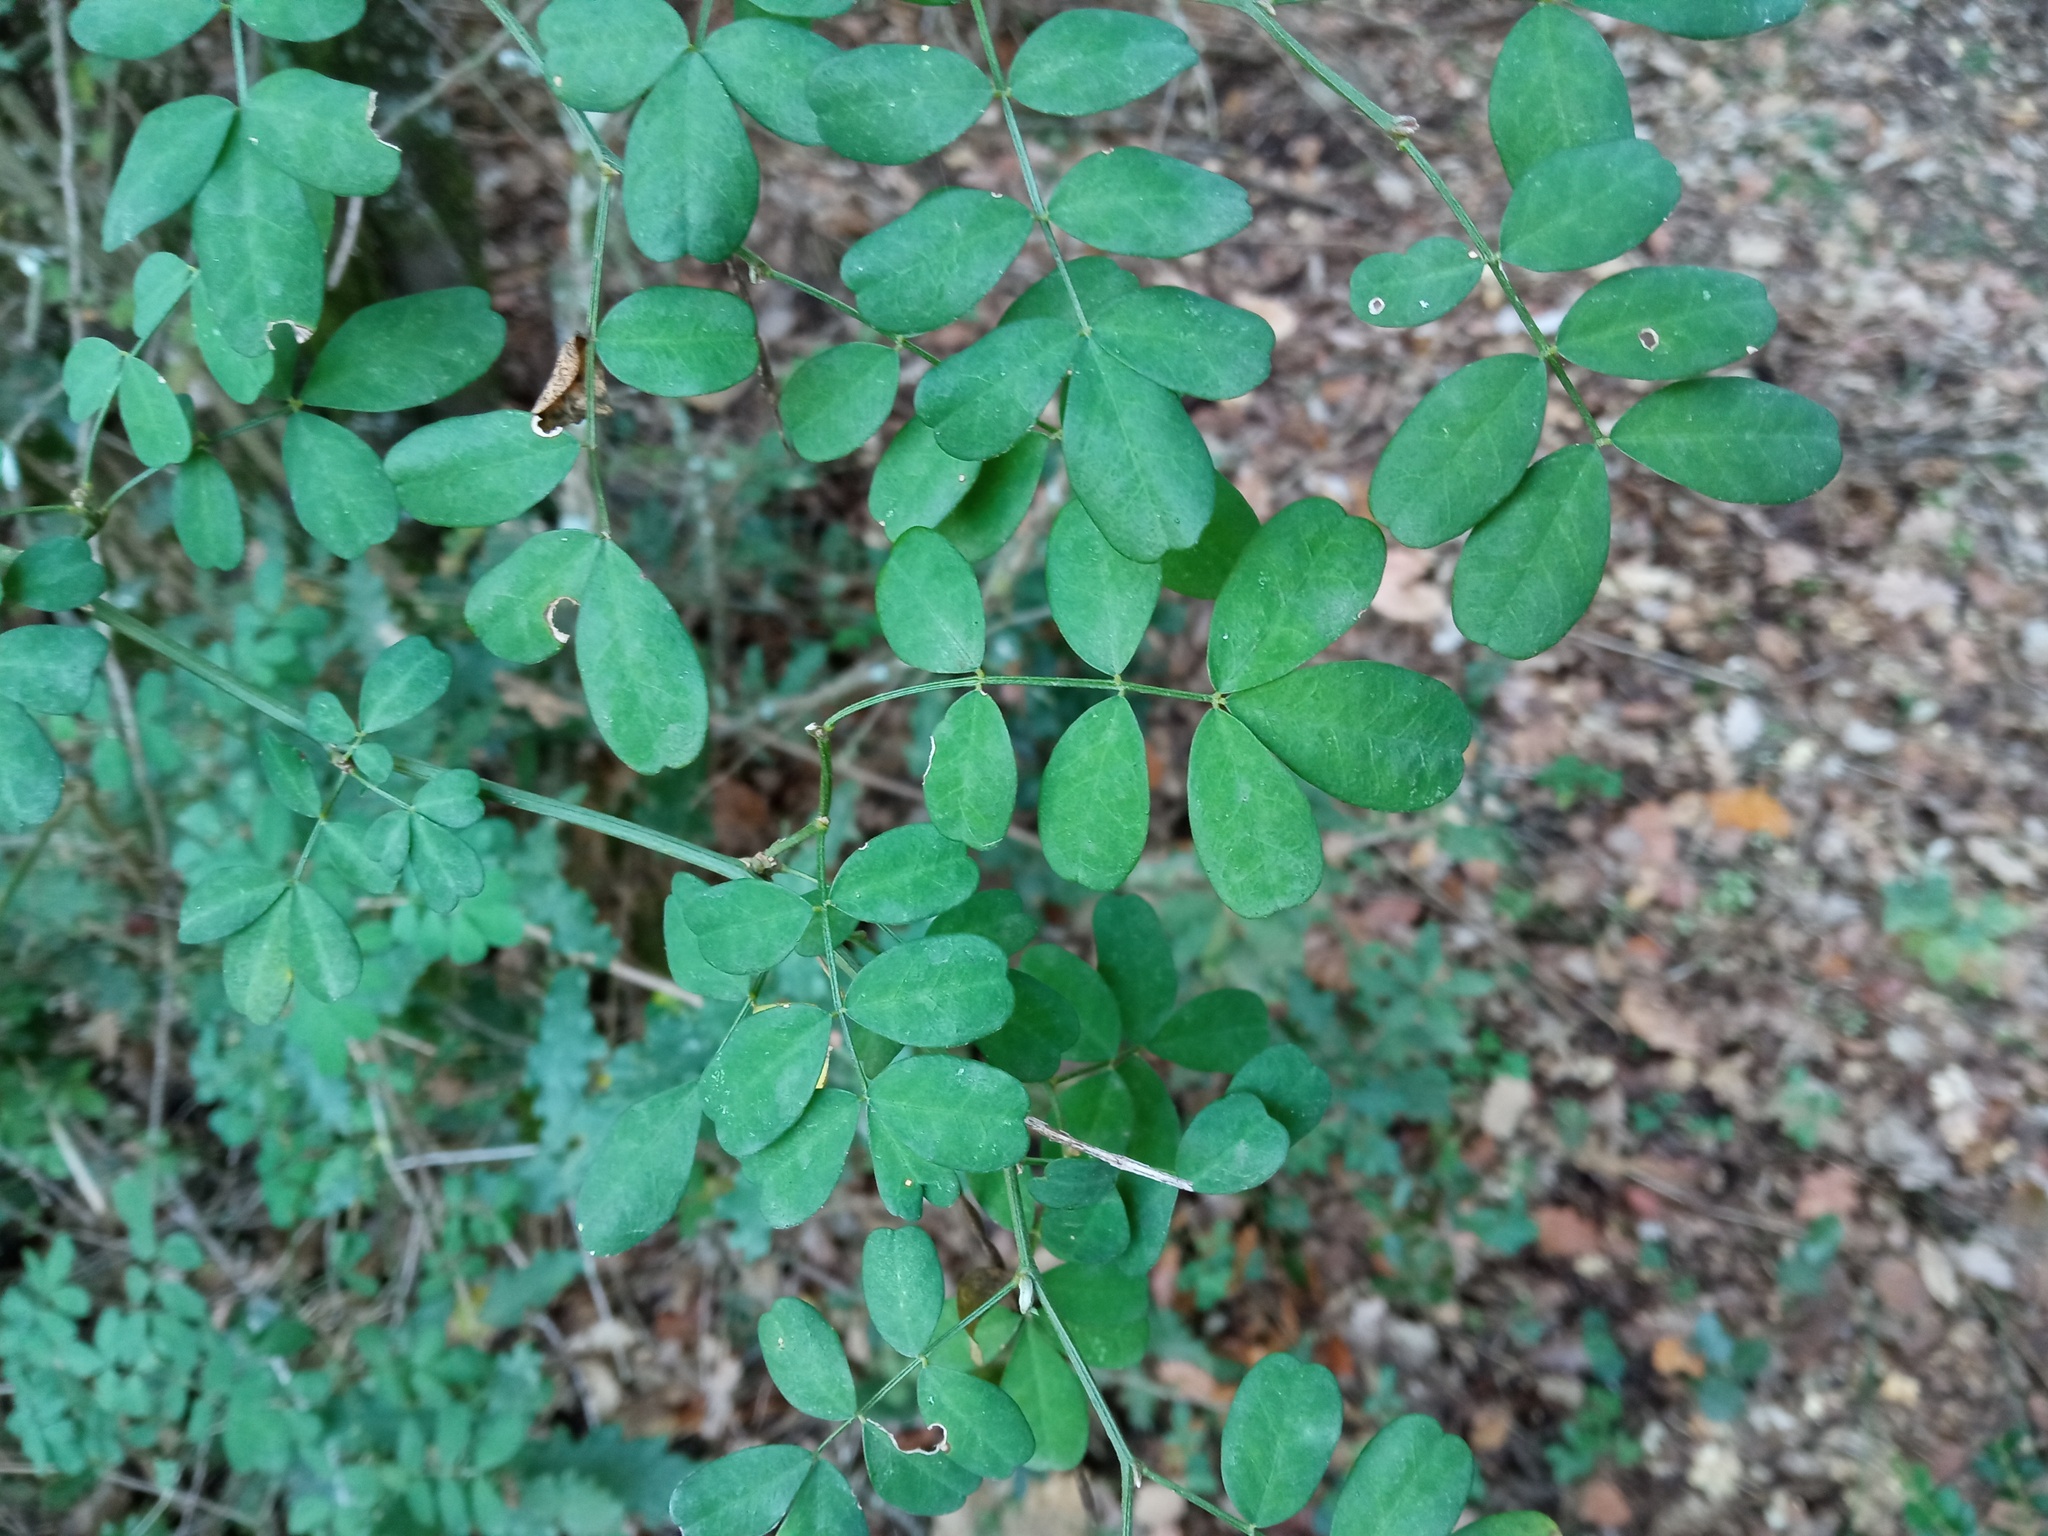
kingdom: Plantae
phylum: Tracheophyta
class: Magnoliopsida
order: Fabales
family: Fabaceae
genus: Hippocrepis
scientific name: Hippocrepis emerus
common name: Scorpion senna
